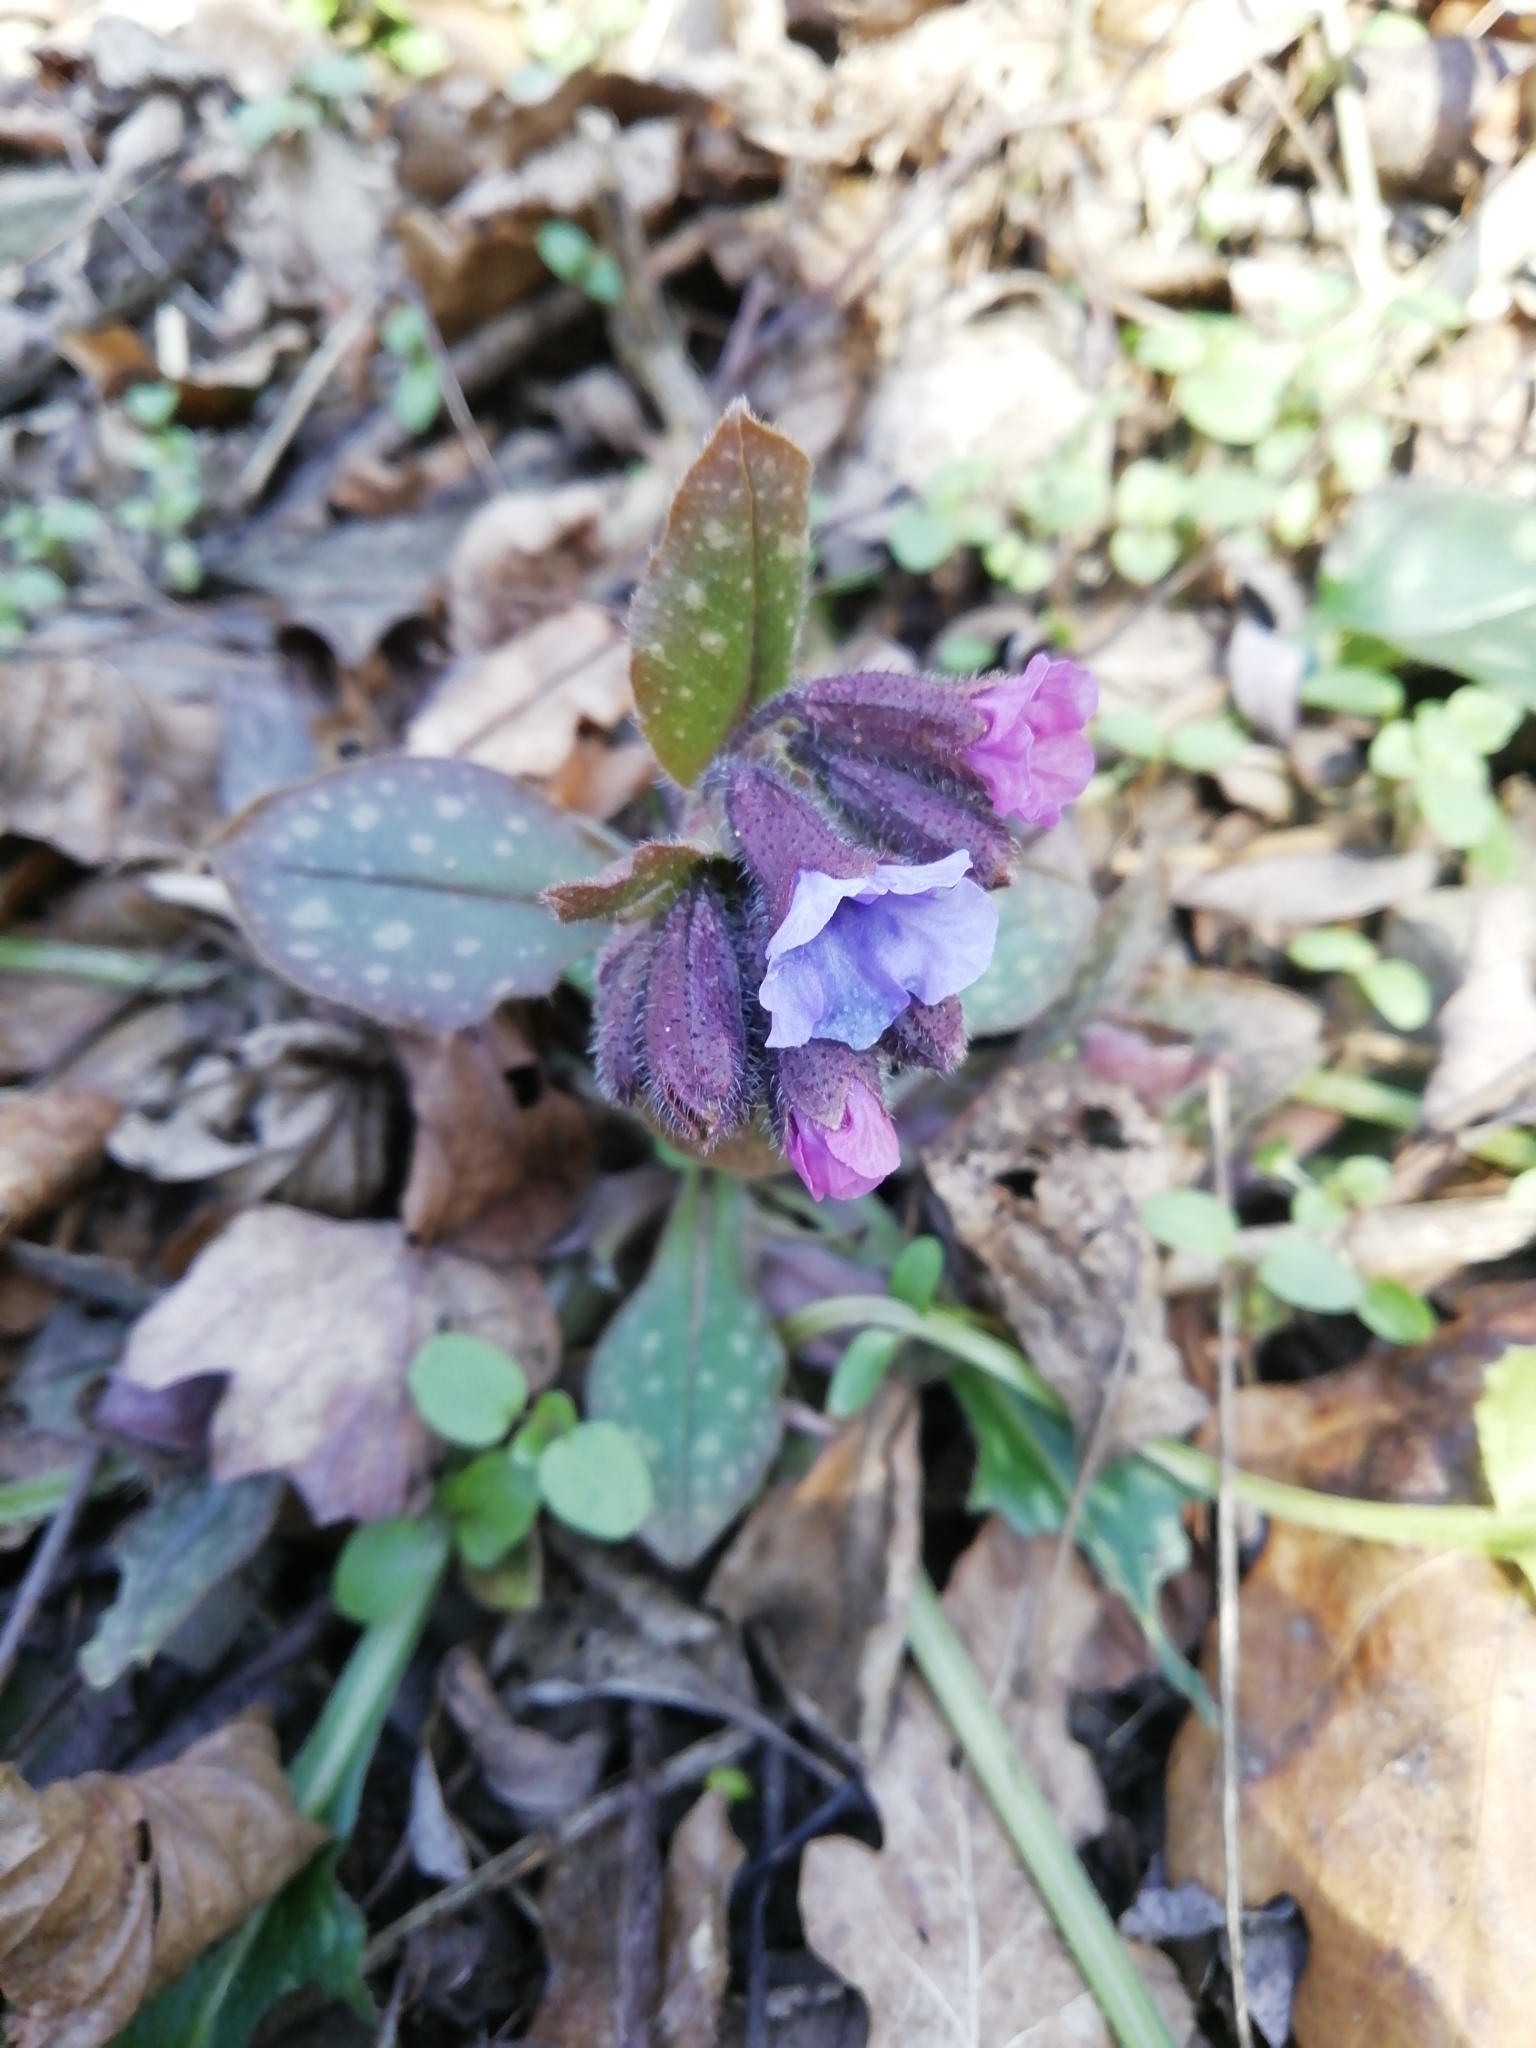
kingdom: Plantae
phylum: Tracheophyta
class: Magnoliopsida
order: Boraginales
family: Boraginaceae
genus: Pulmonaria
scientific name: Pulmonaria officinalis
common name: Lungwort
